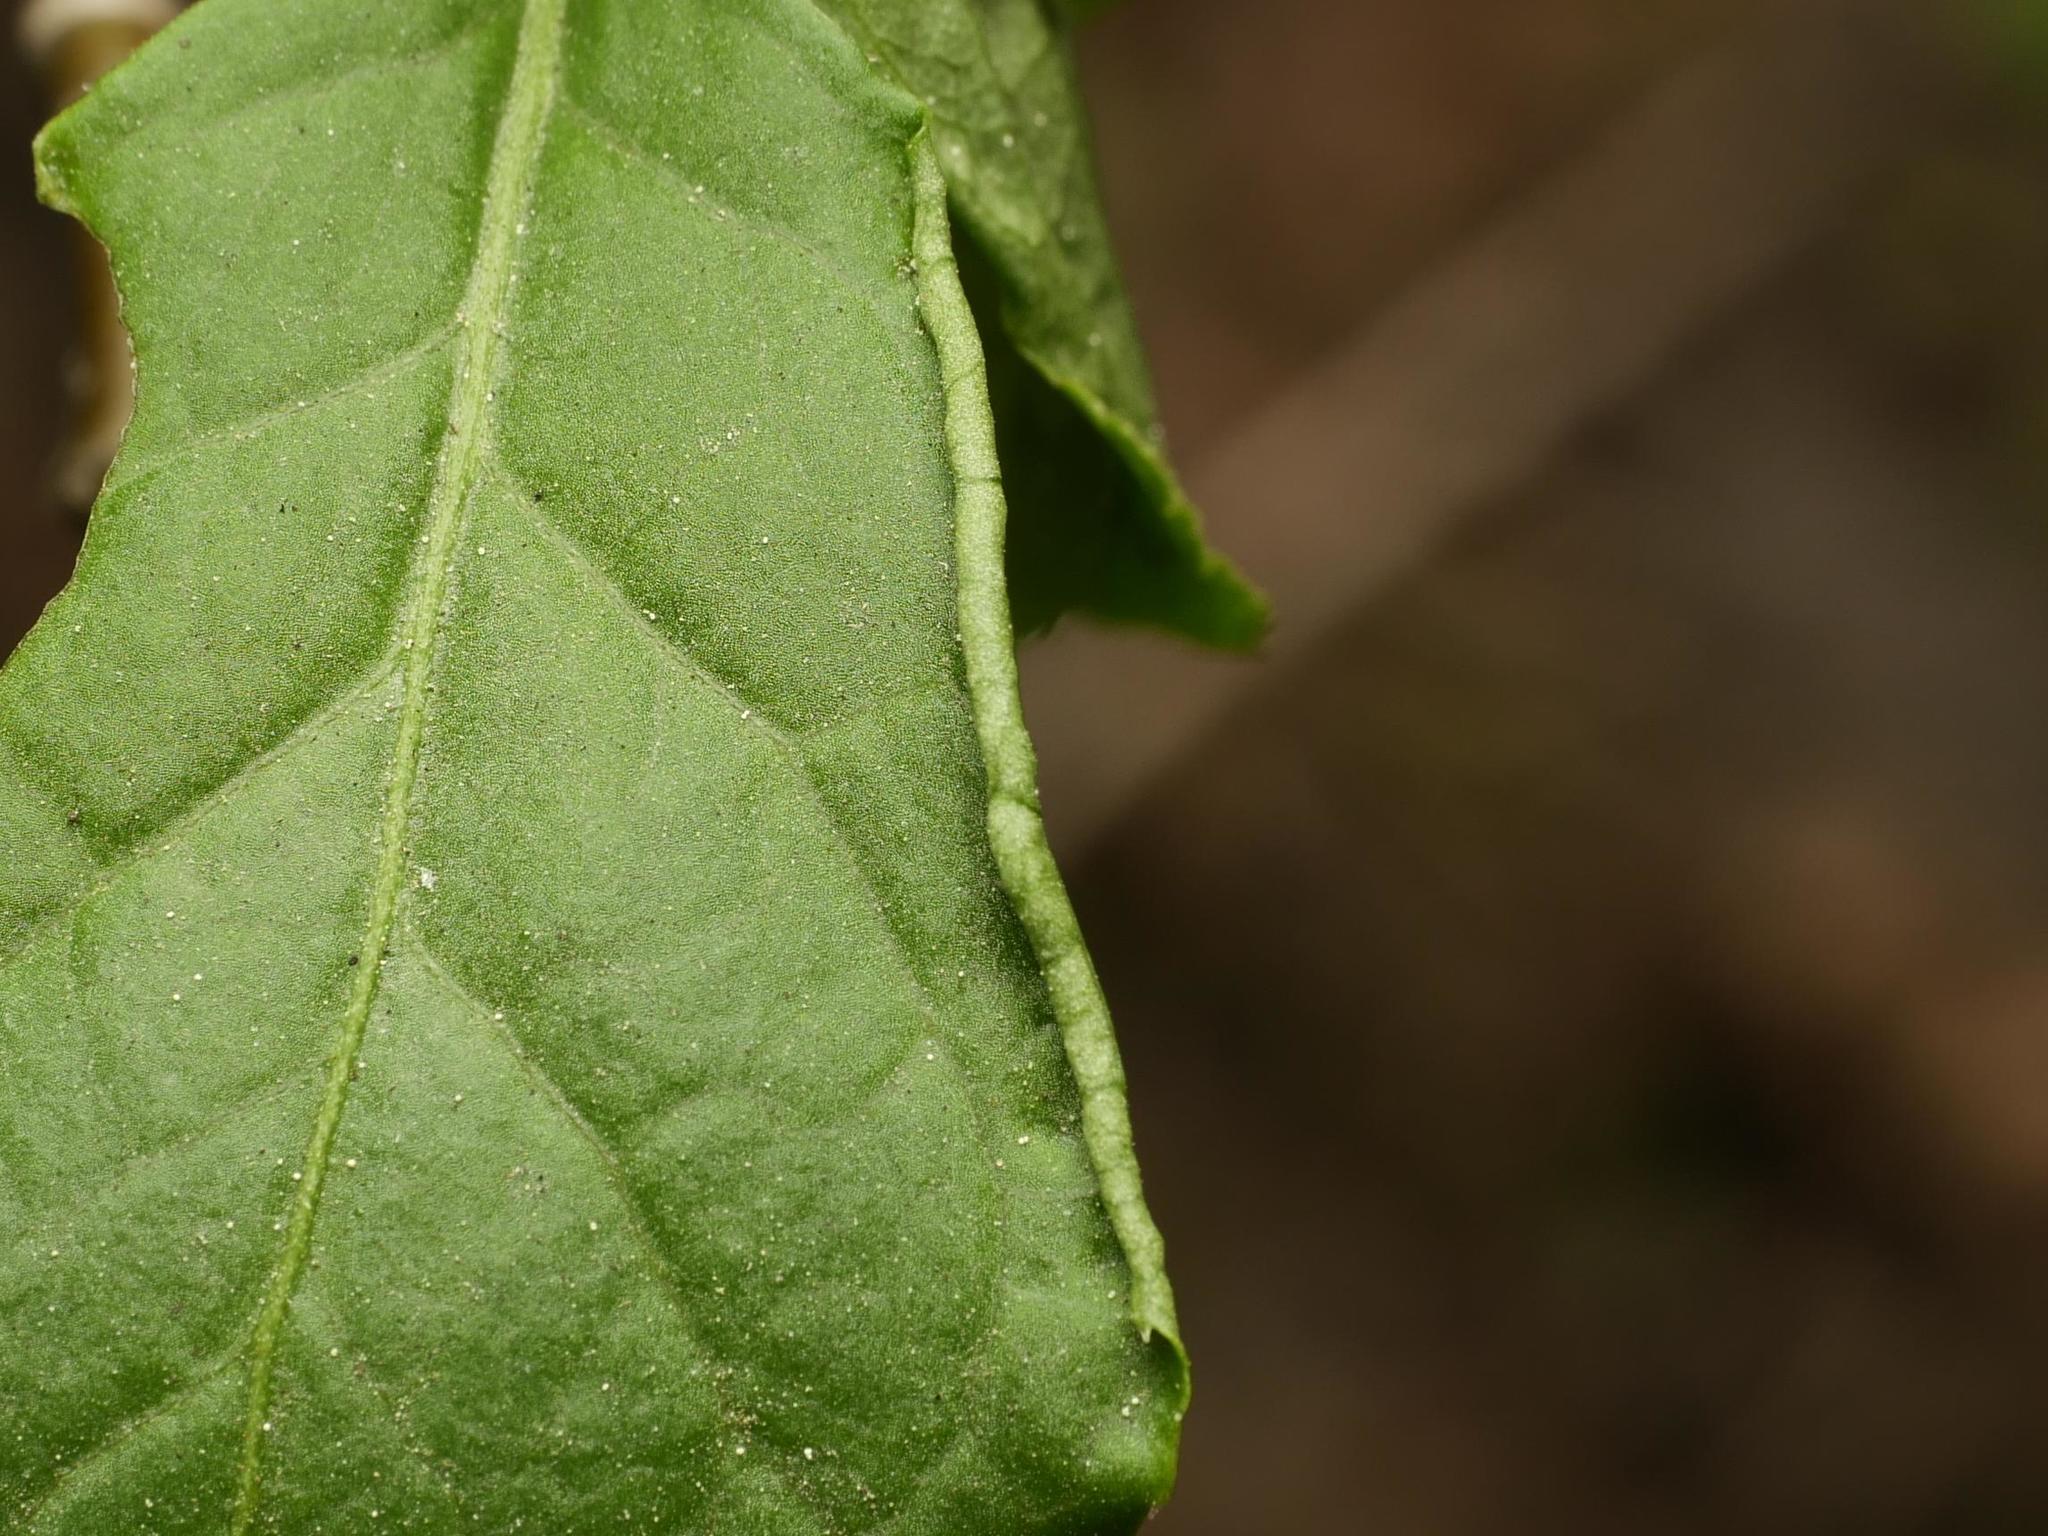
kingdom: Animalia
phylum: Arthropoda
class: Arachnida
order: Trombidiformes
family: Eriophyidae
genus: Stenacis
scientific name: Stenacis evonymi
